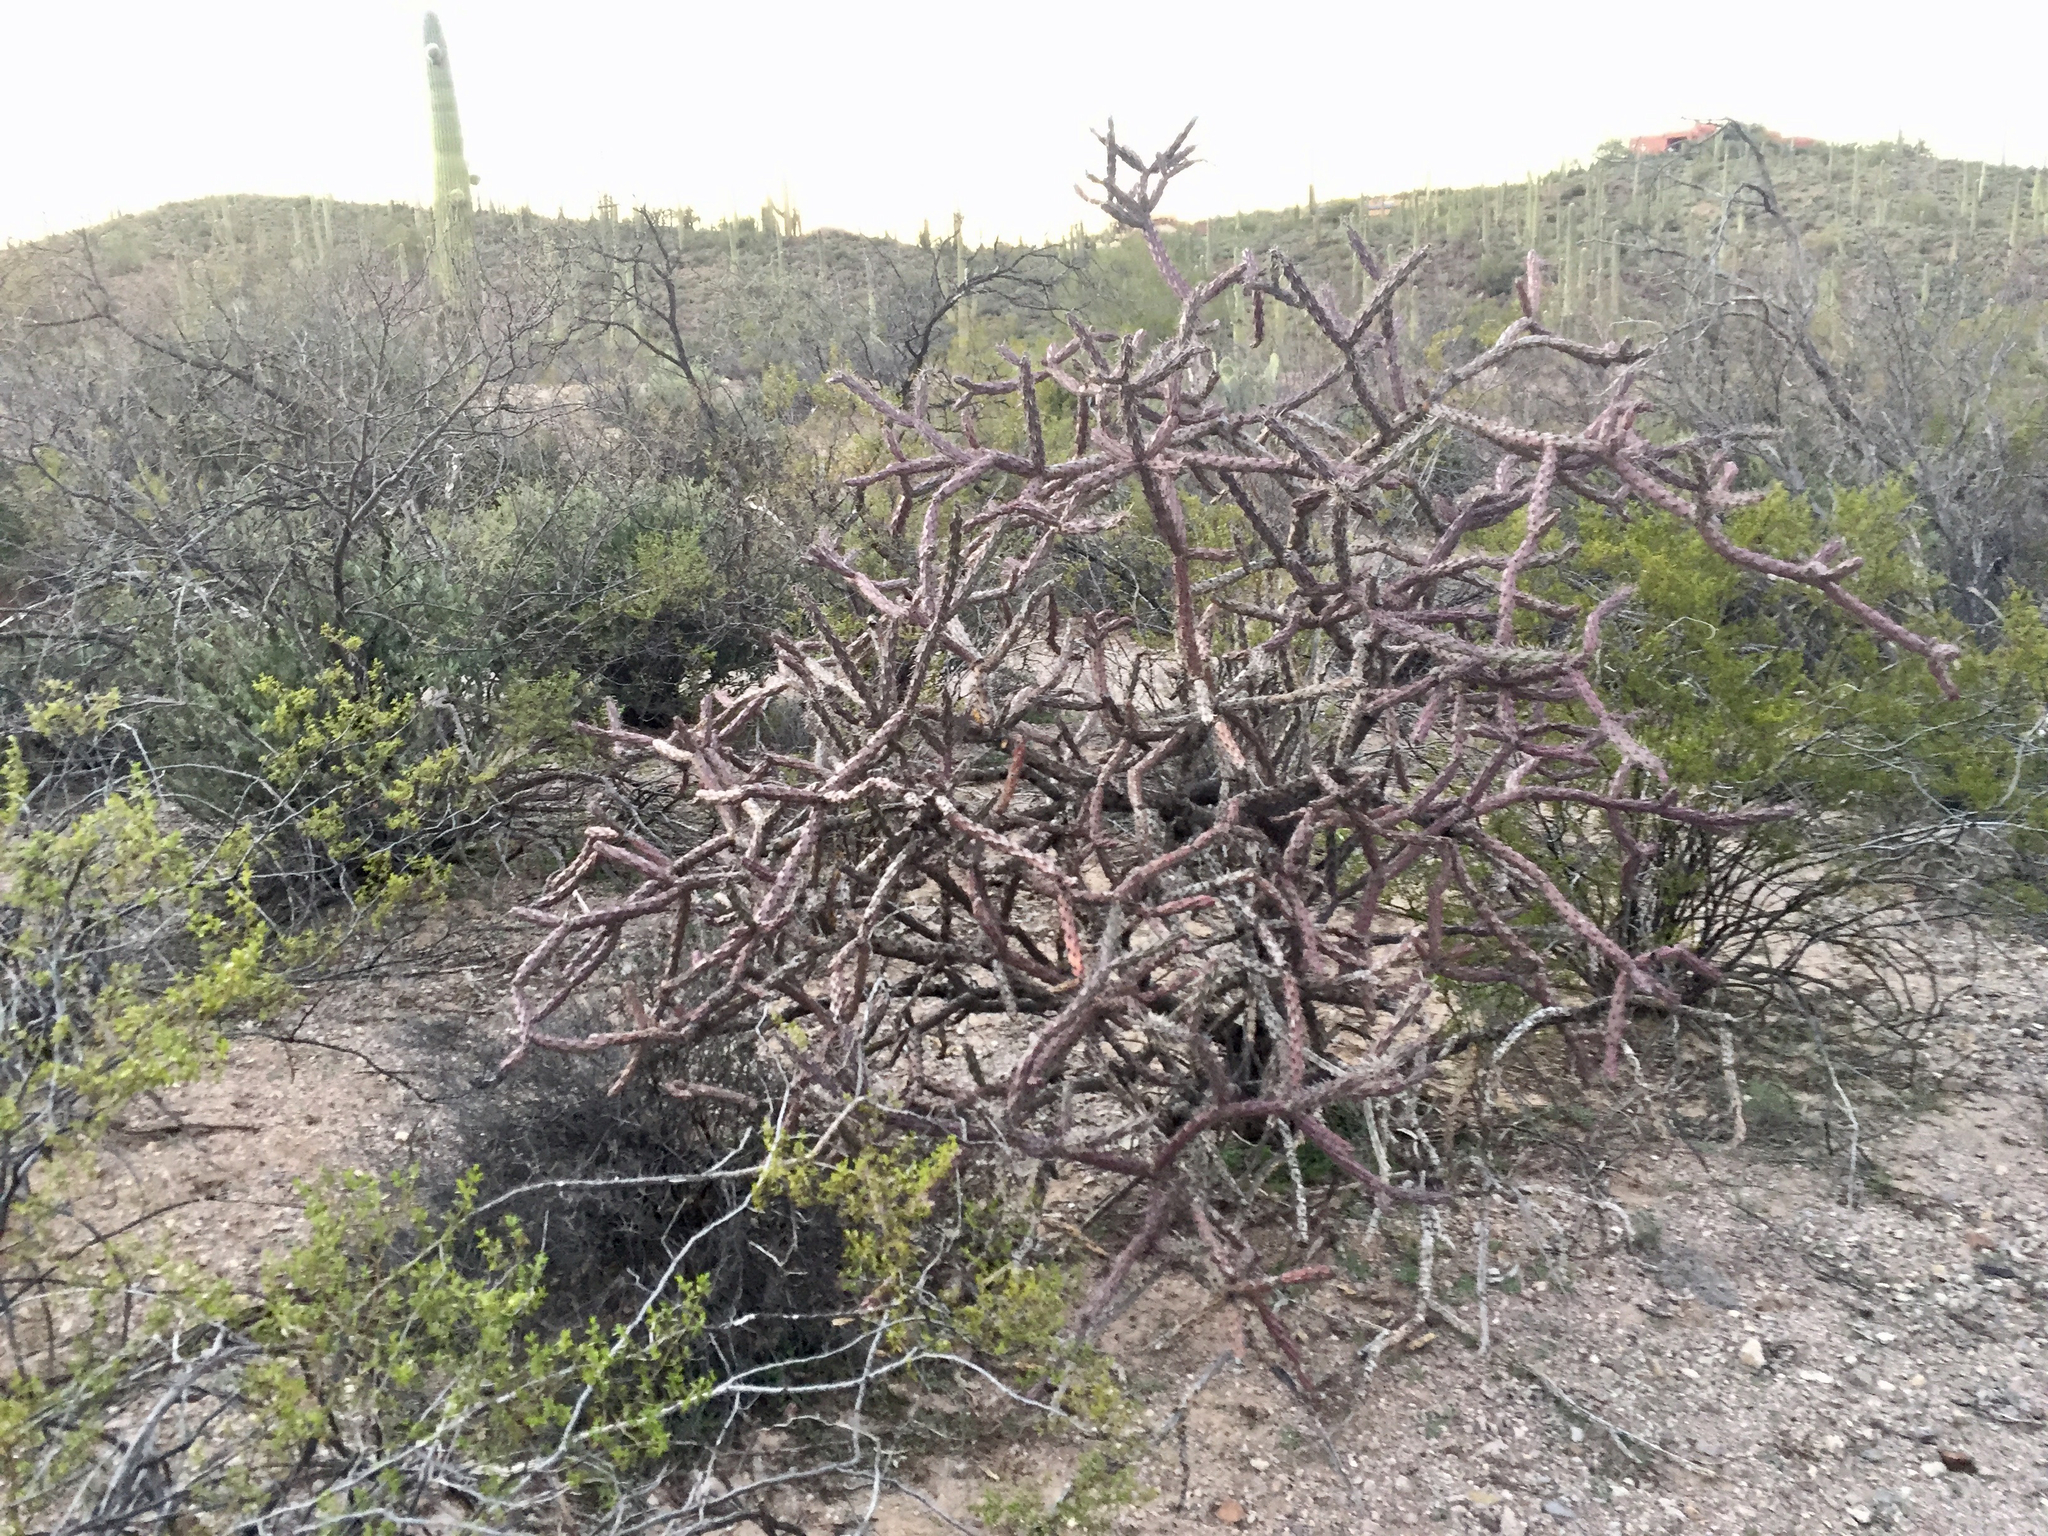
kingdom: Plantae
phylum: Tracheophyta
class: Magnoliopsida
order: Caryophyllales
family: Cactaceae
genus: Cylindropuntia
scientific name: Cylindropuntia thurberi
